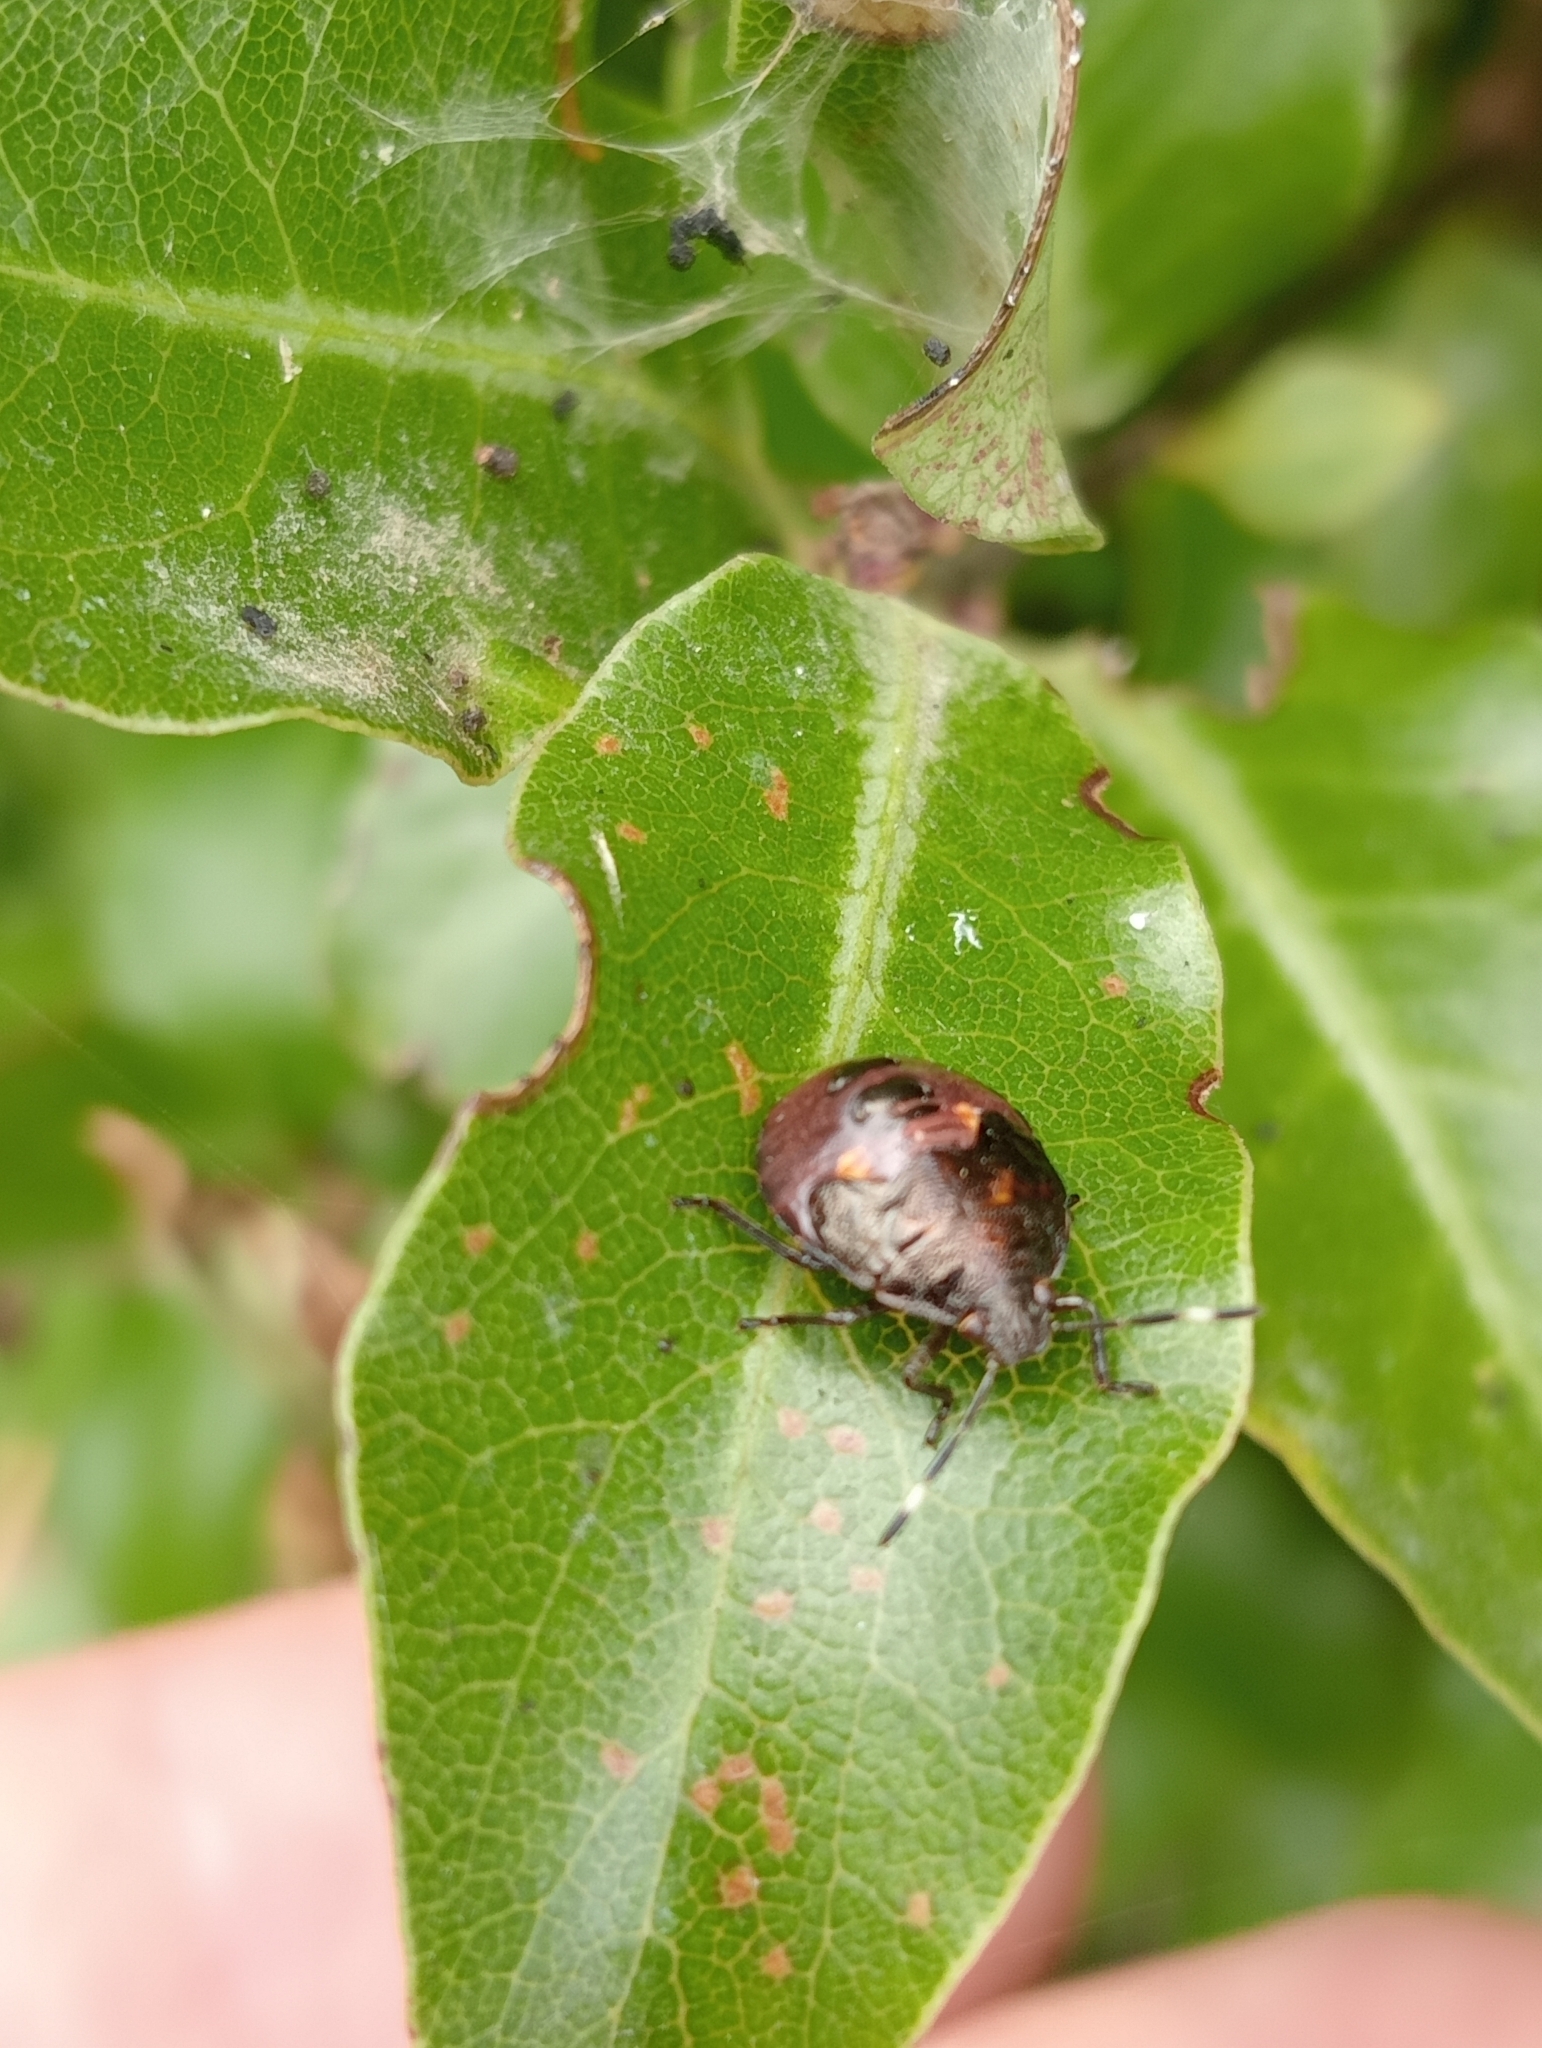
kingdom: Animalia
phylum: Arthropoda
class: Insecta
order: Hemiptera
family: Pentatomidae
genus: Monteithiella
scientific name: Monteithiella
